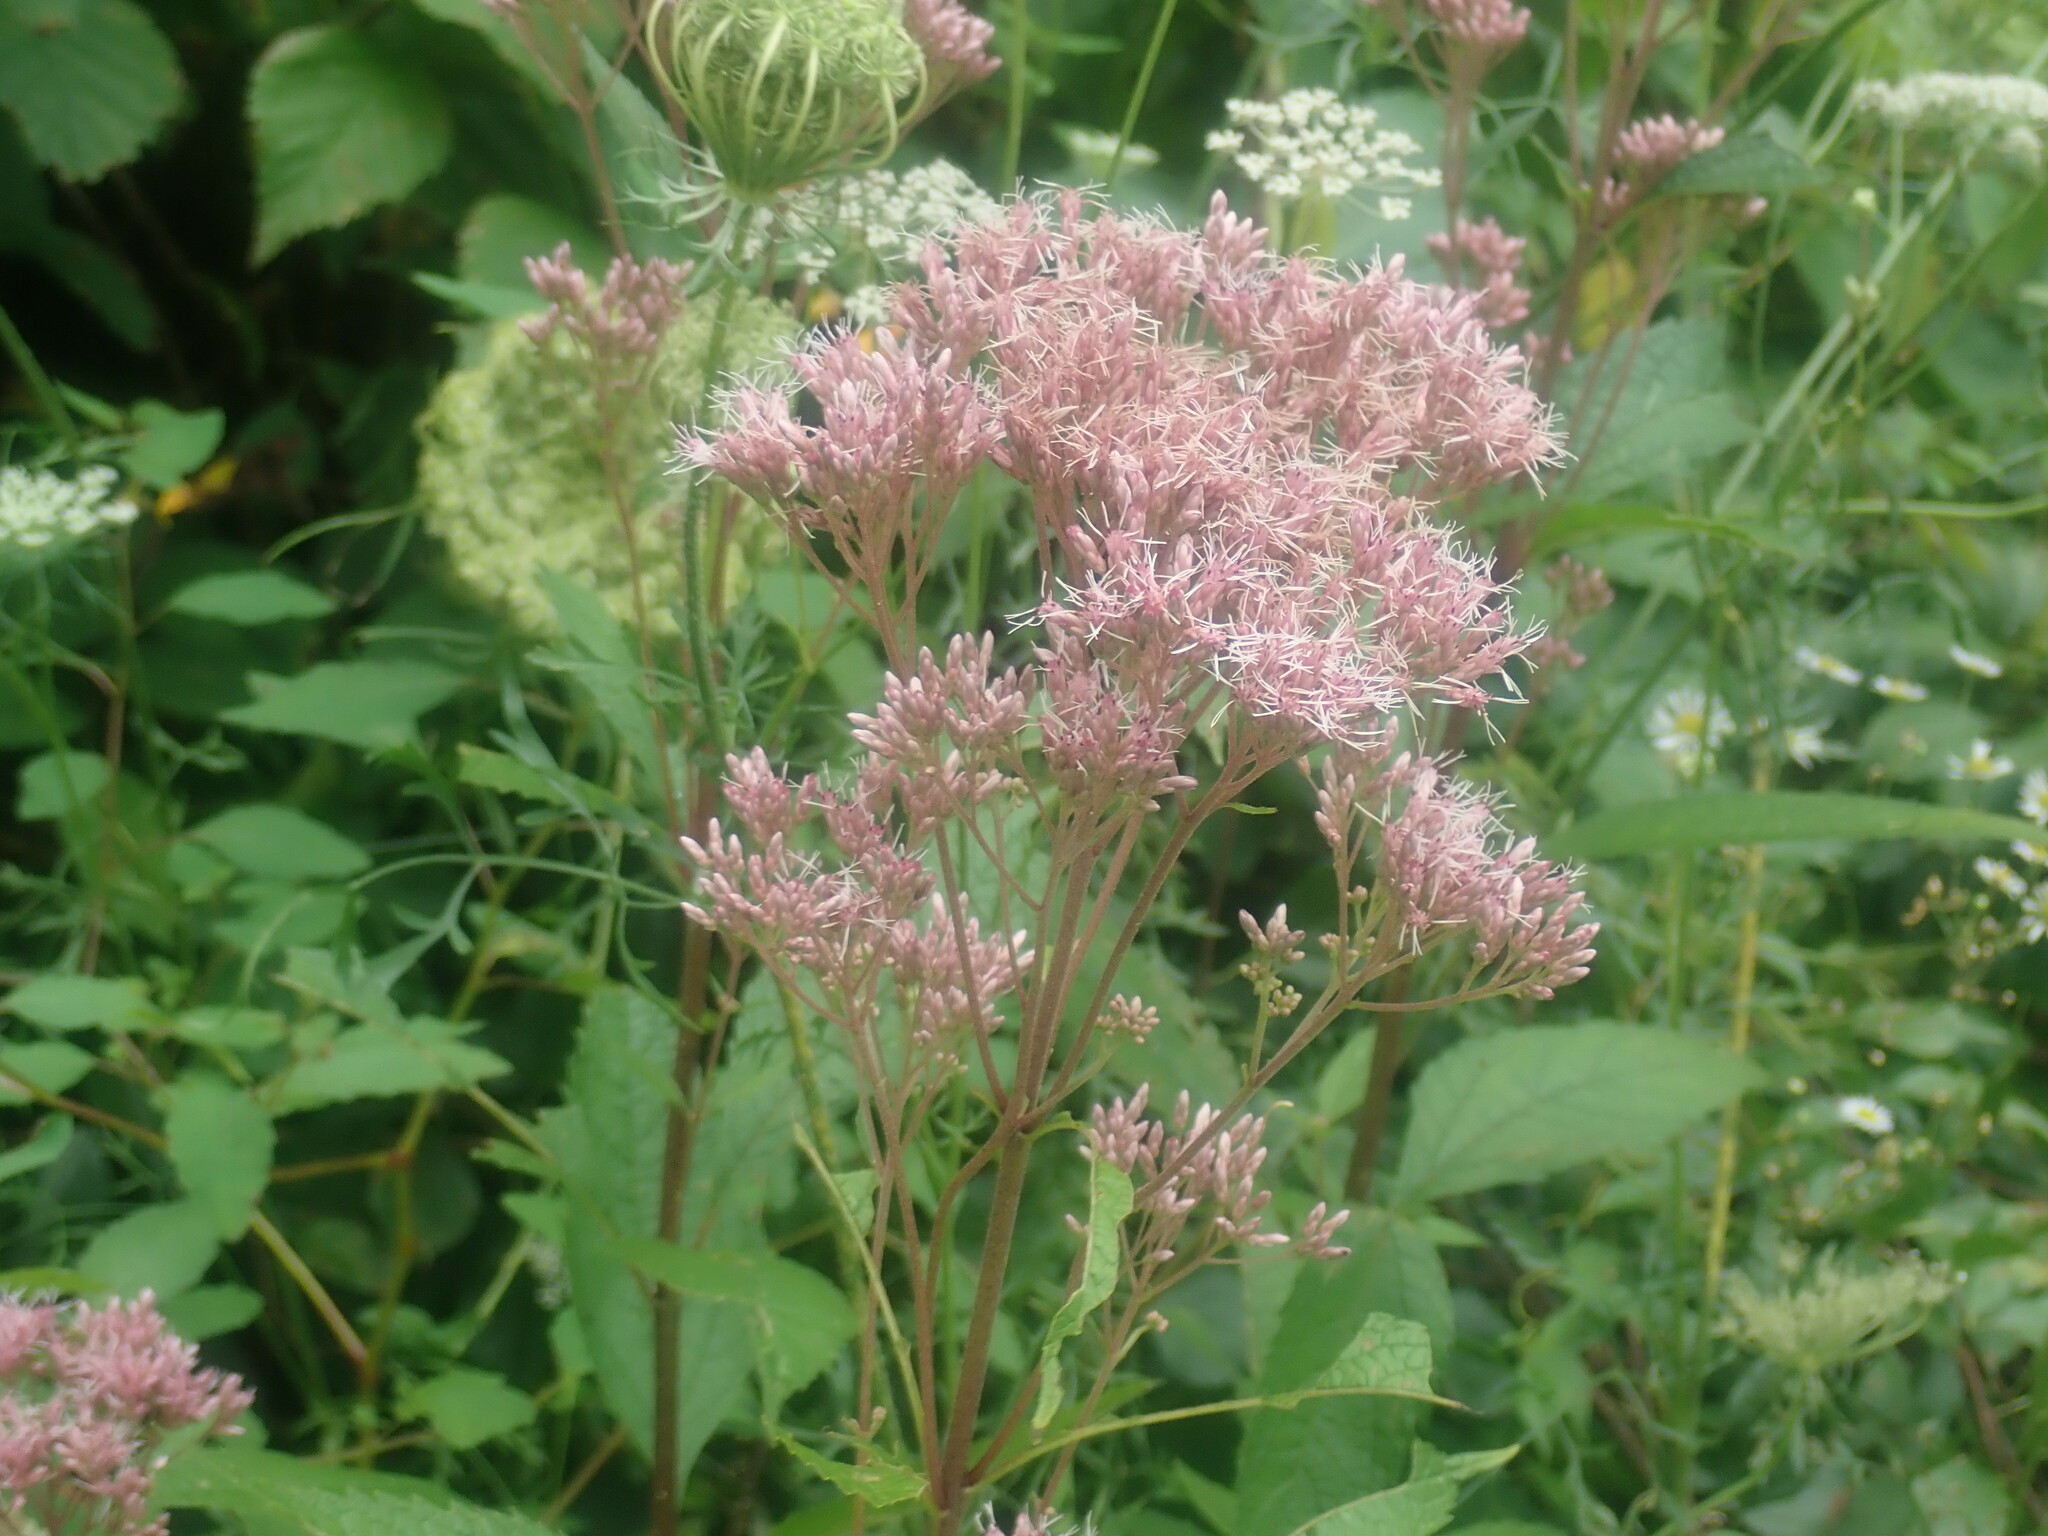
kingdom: Plantae
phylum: Tracheophyta
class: Magnoliopsida
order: Asterales
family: Asteraceae
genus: Eutrochium
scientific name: Eutrochium
